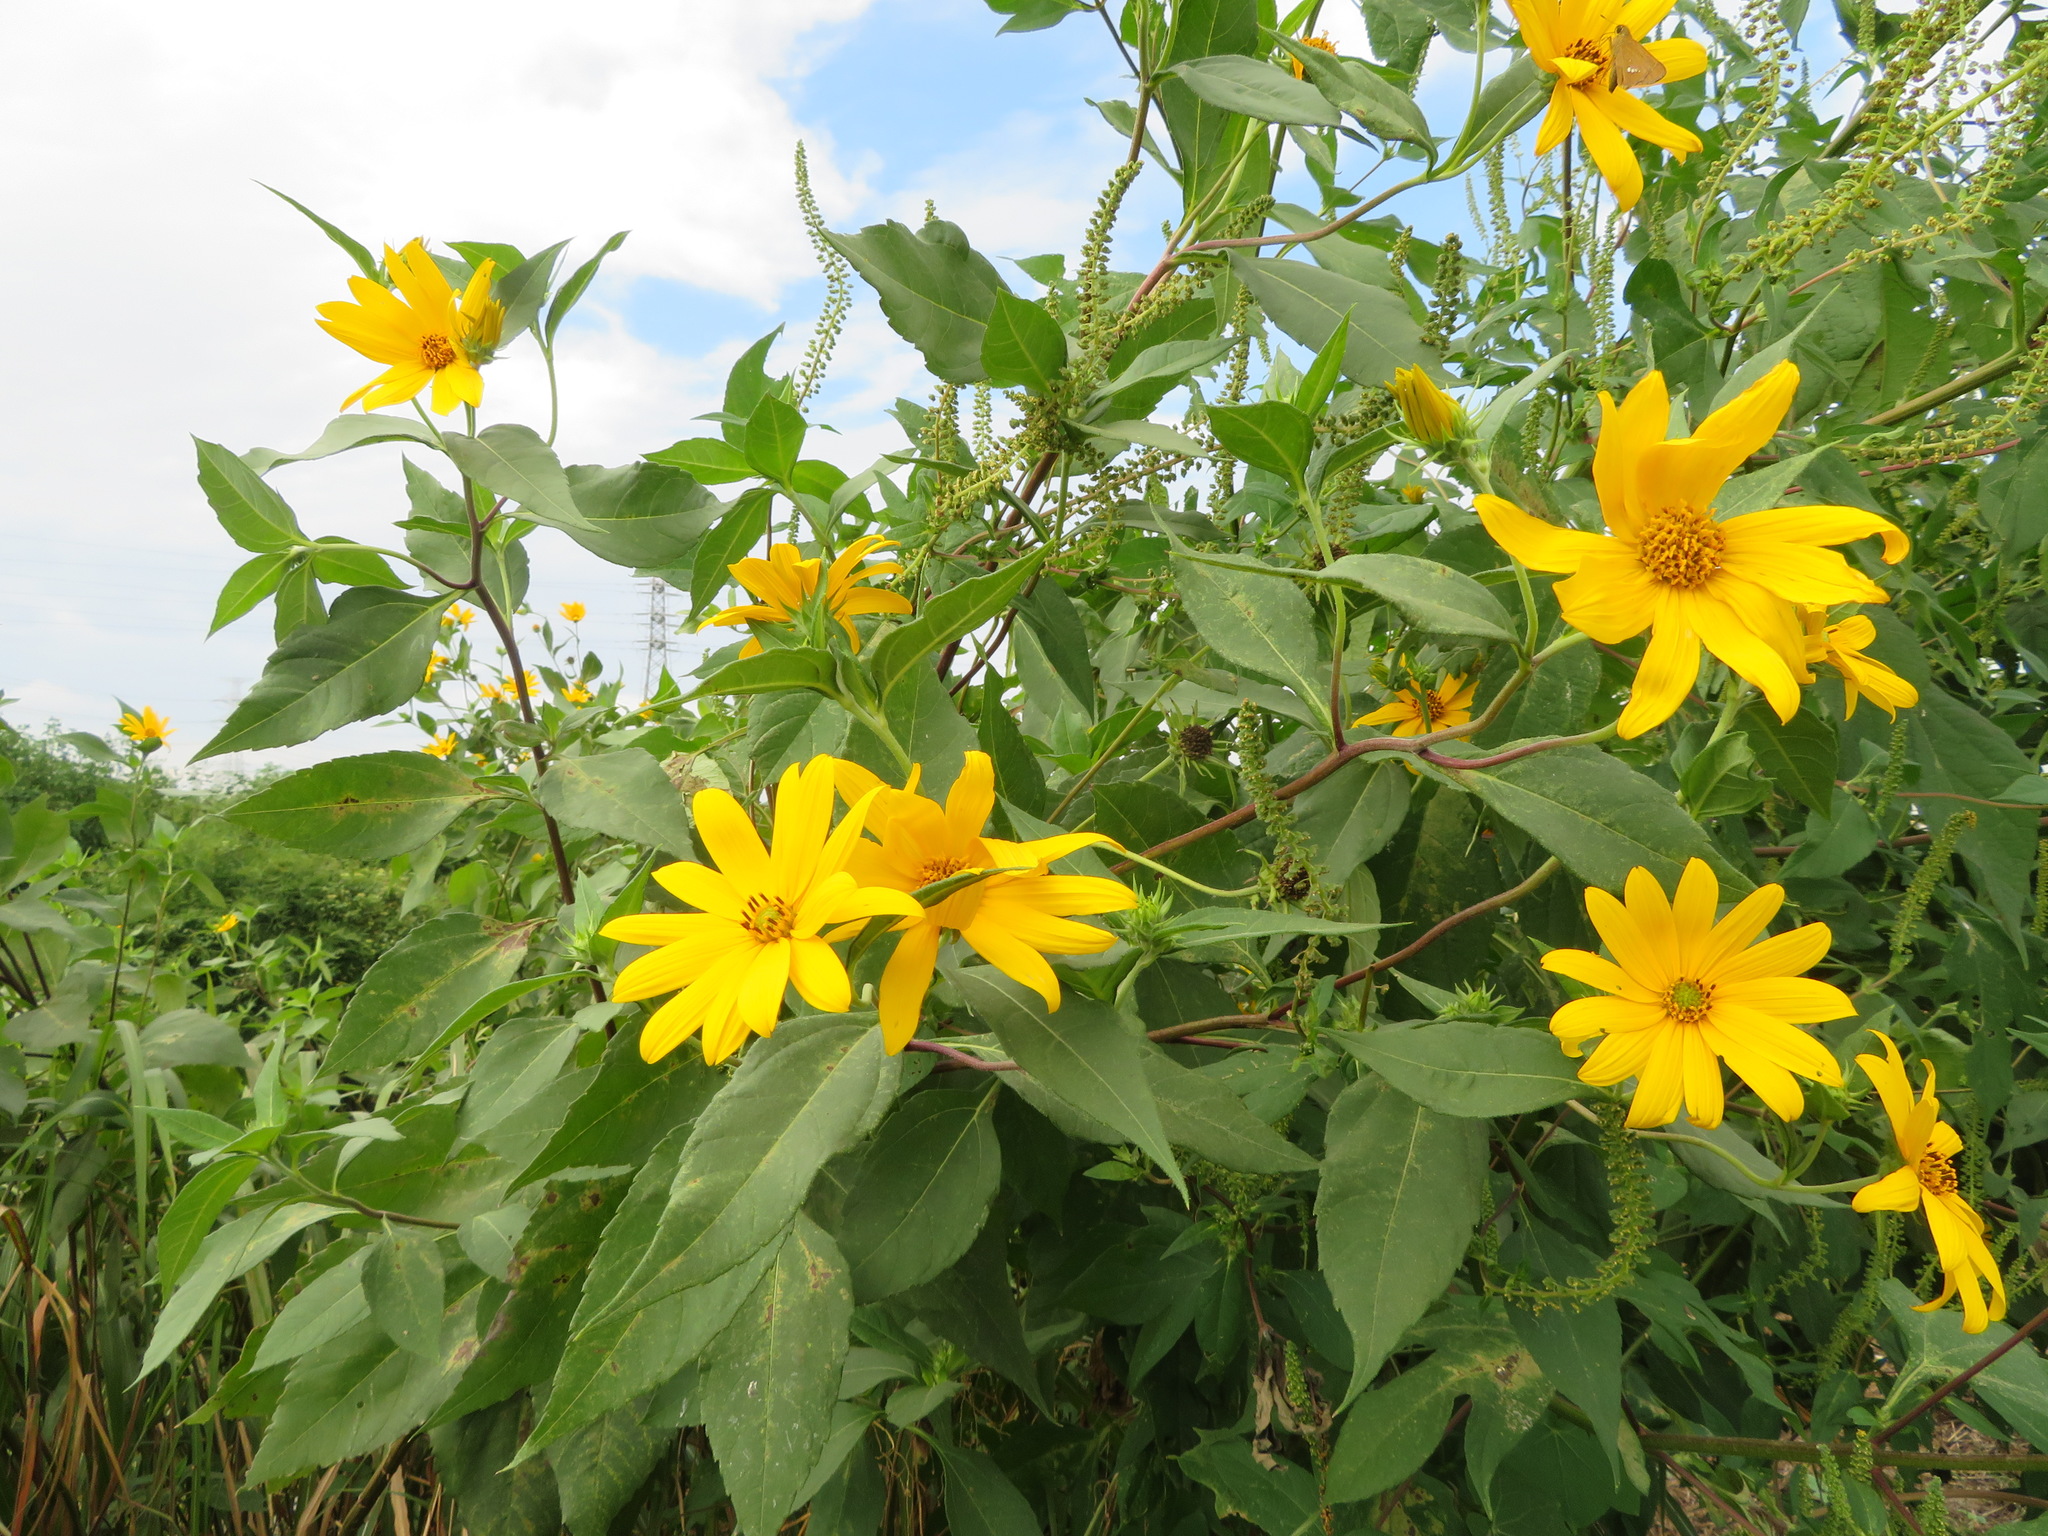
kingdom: Plantae
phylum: Tracheophyta
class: Magnoliopsida
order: Asterales
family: Asteraceae
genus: Helianthus
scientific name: Helianthus tuberosus
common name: Jerusalem artichoke
